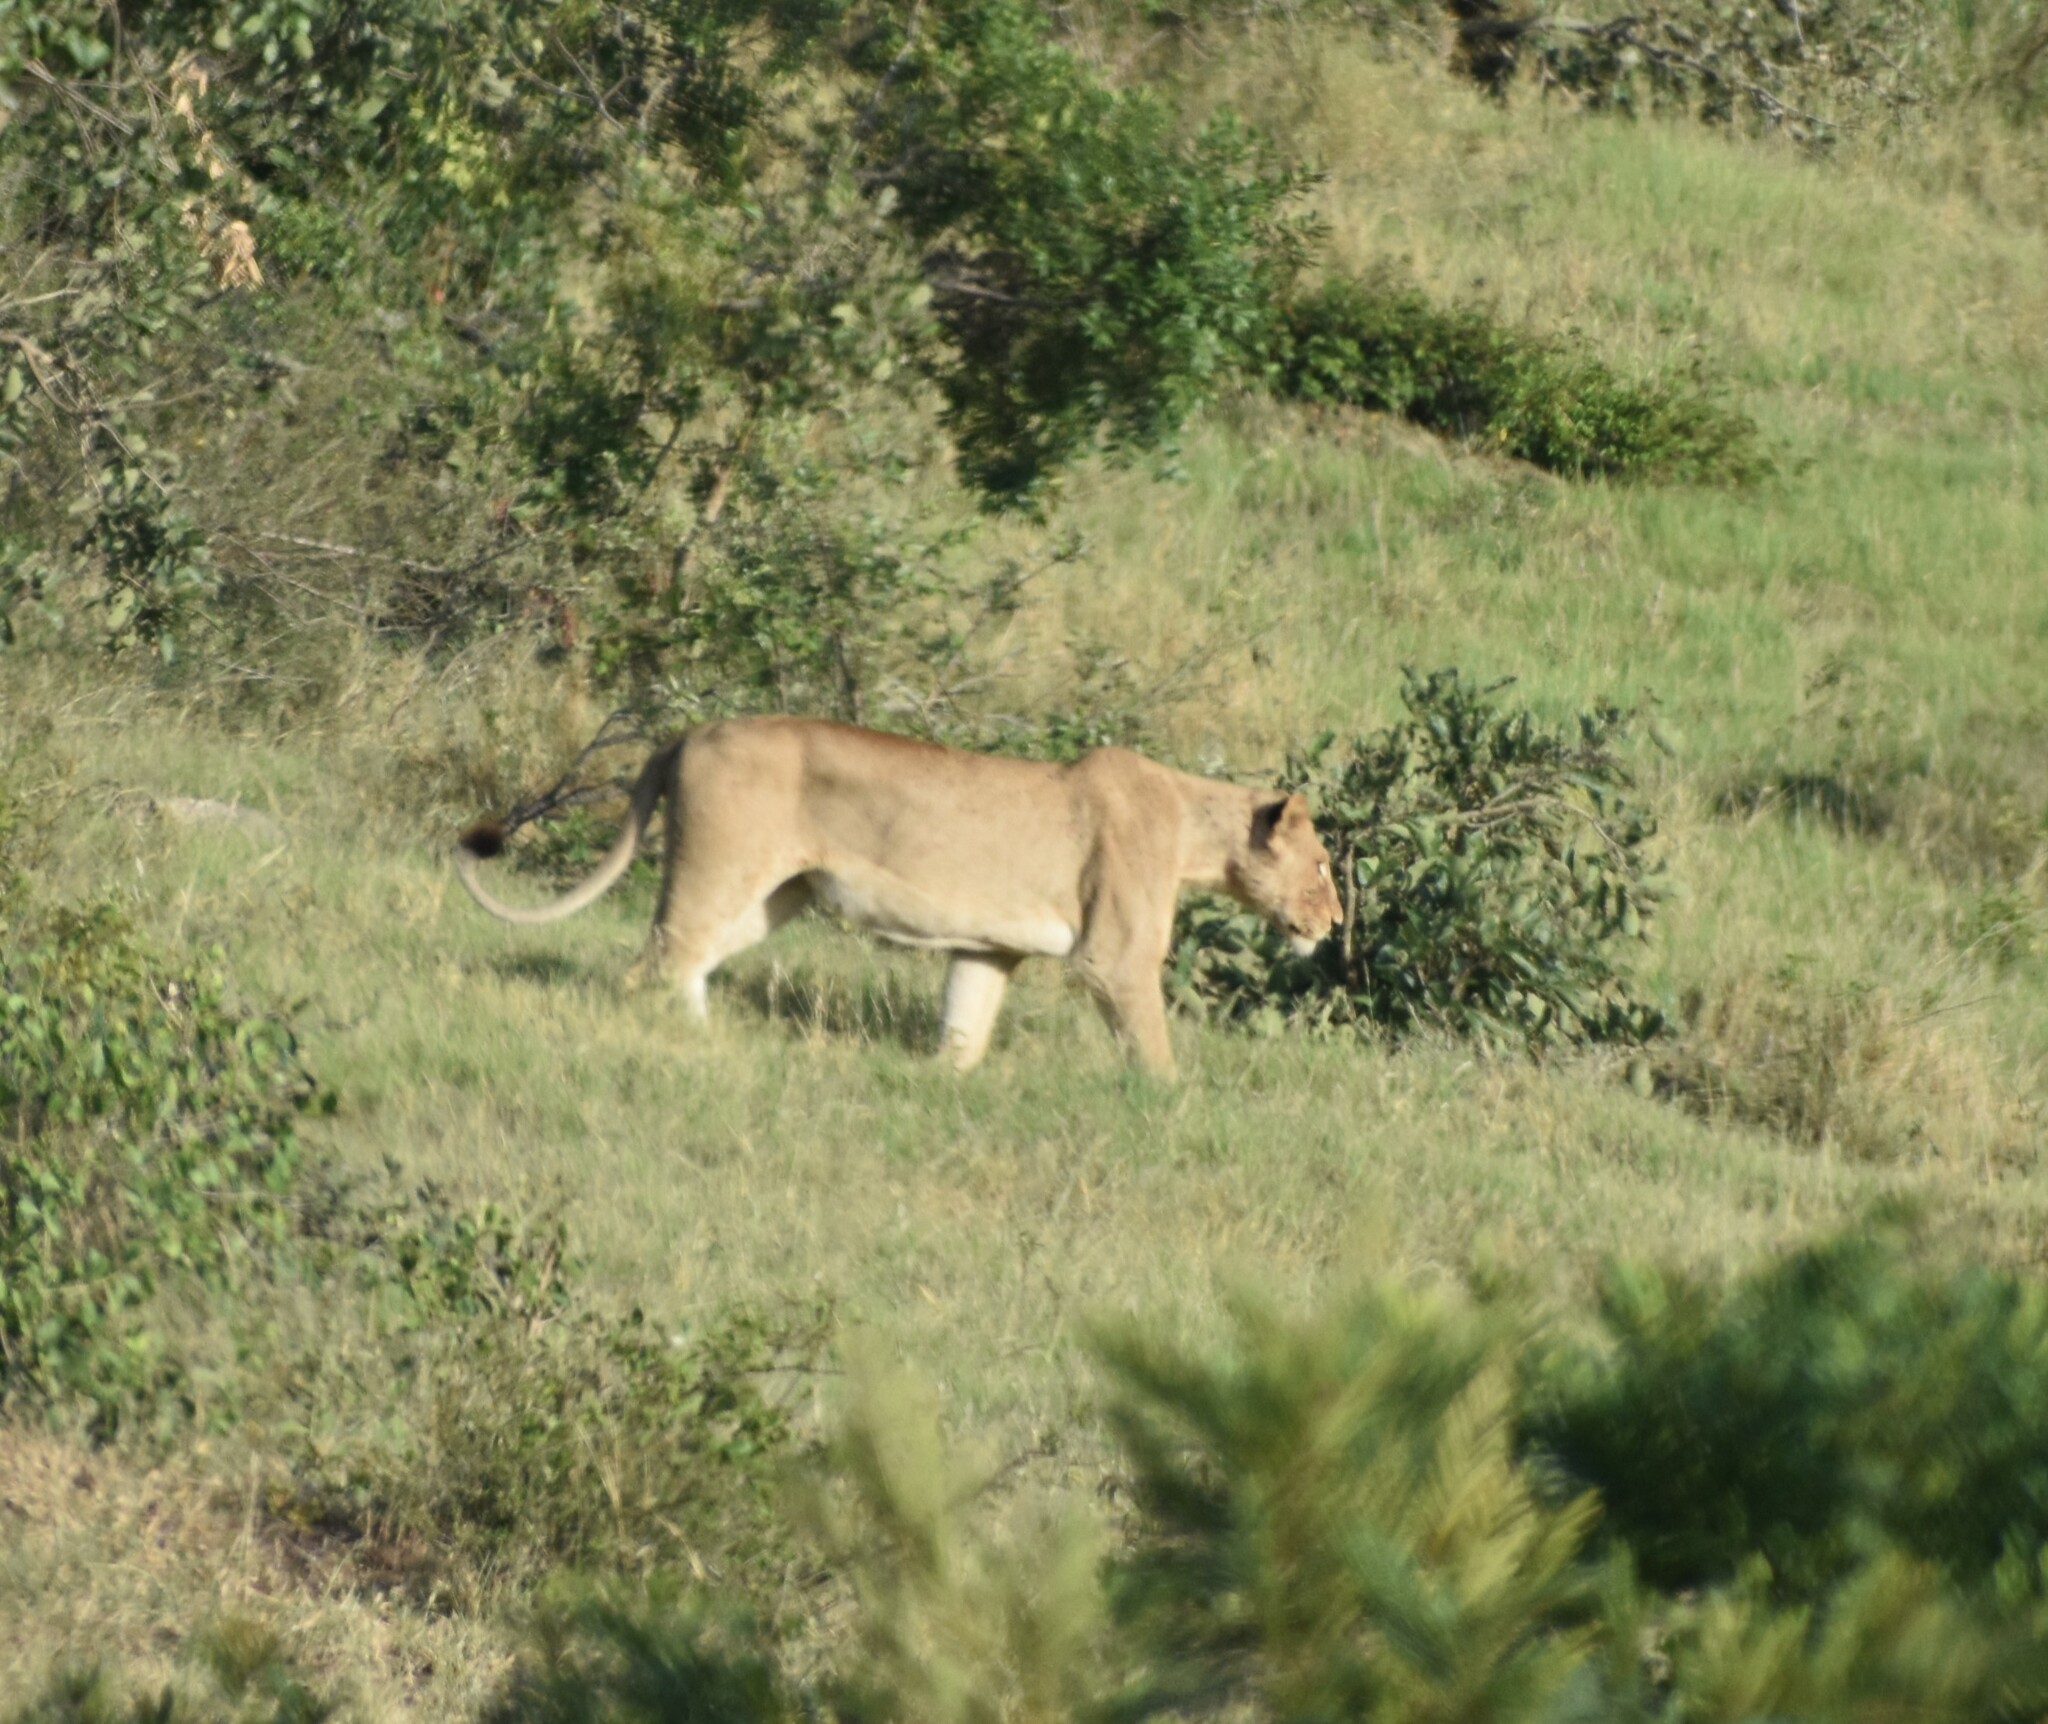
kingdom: Animalia
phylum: Chordata
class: Mammalia
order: Carnivora
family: Felidae
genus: Panthera
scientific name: Panthera leo
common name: Lion
